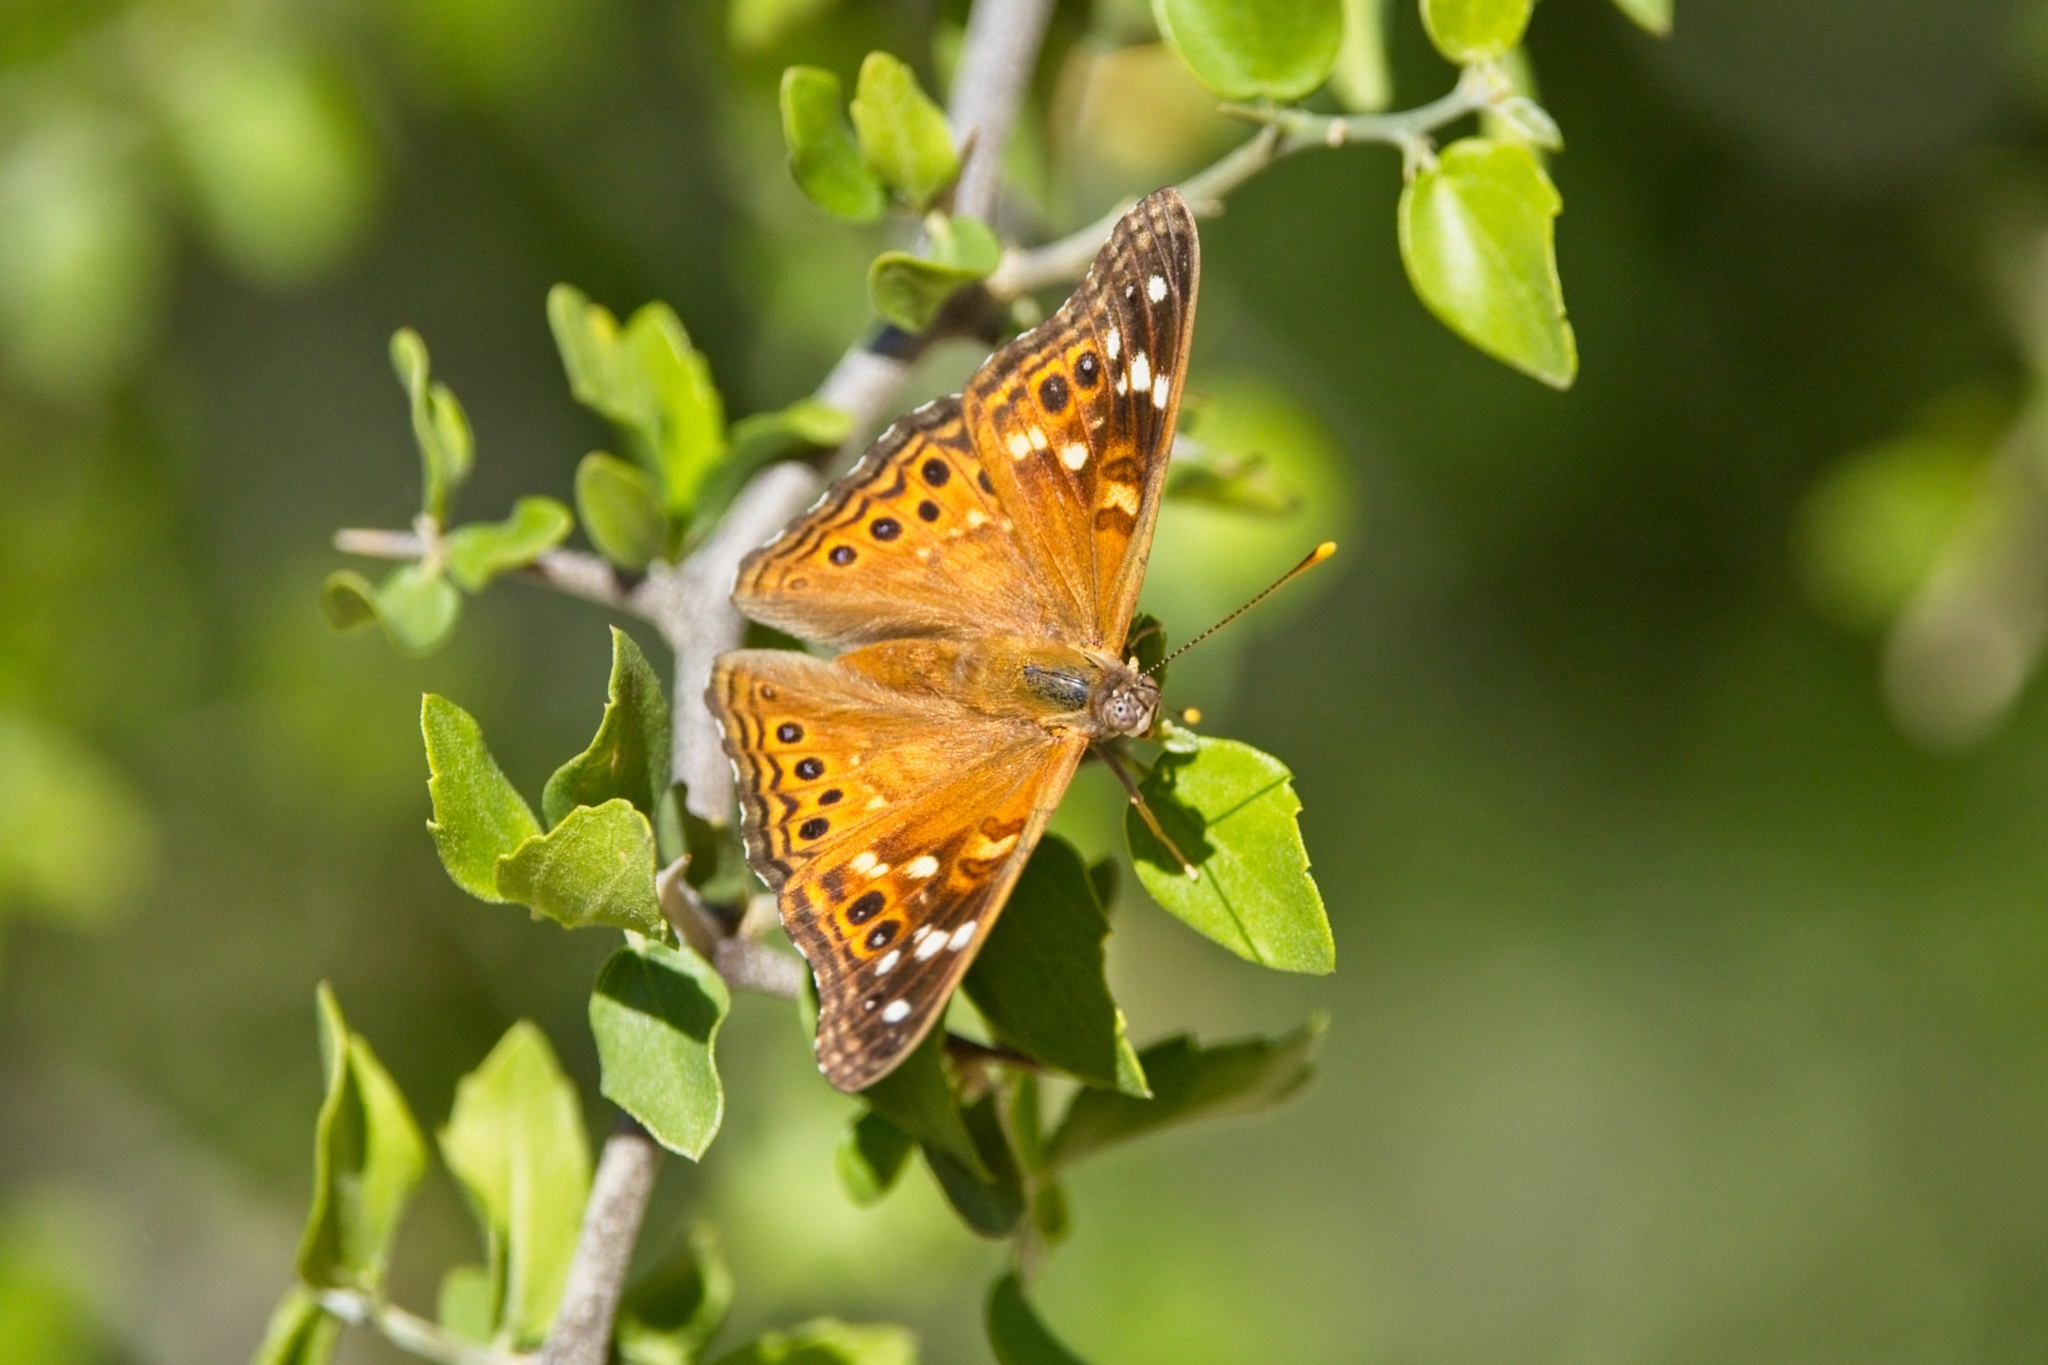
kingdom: Animalia
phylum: Arthropoda
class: Insecta
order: Lepidoptera
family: Nymphalidae
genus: Asterocampa
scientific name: Asterocampa leilia
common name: Empress leilia
